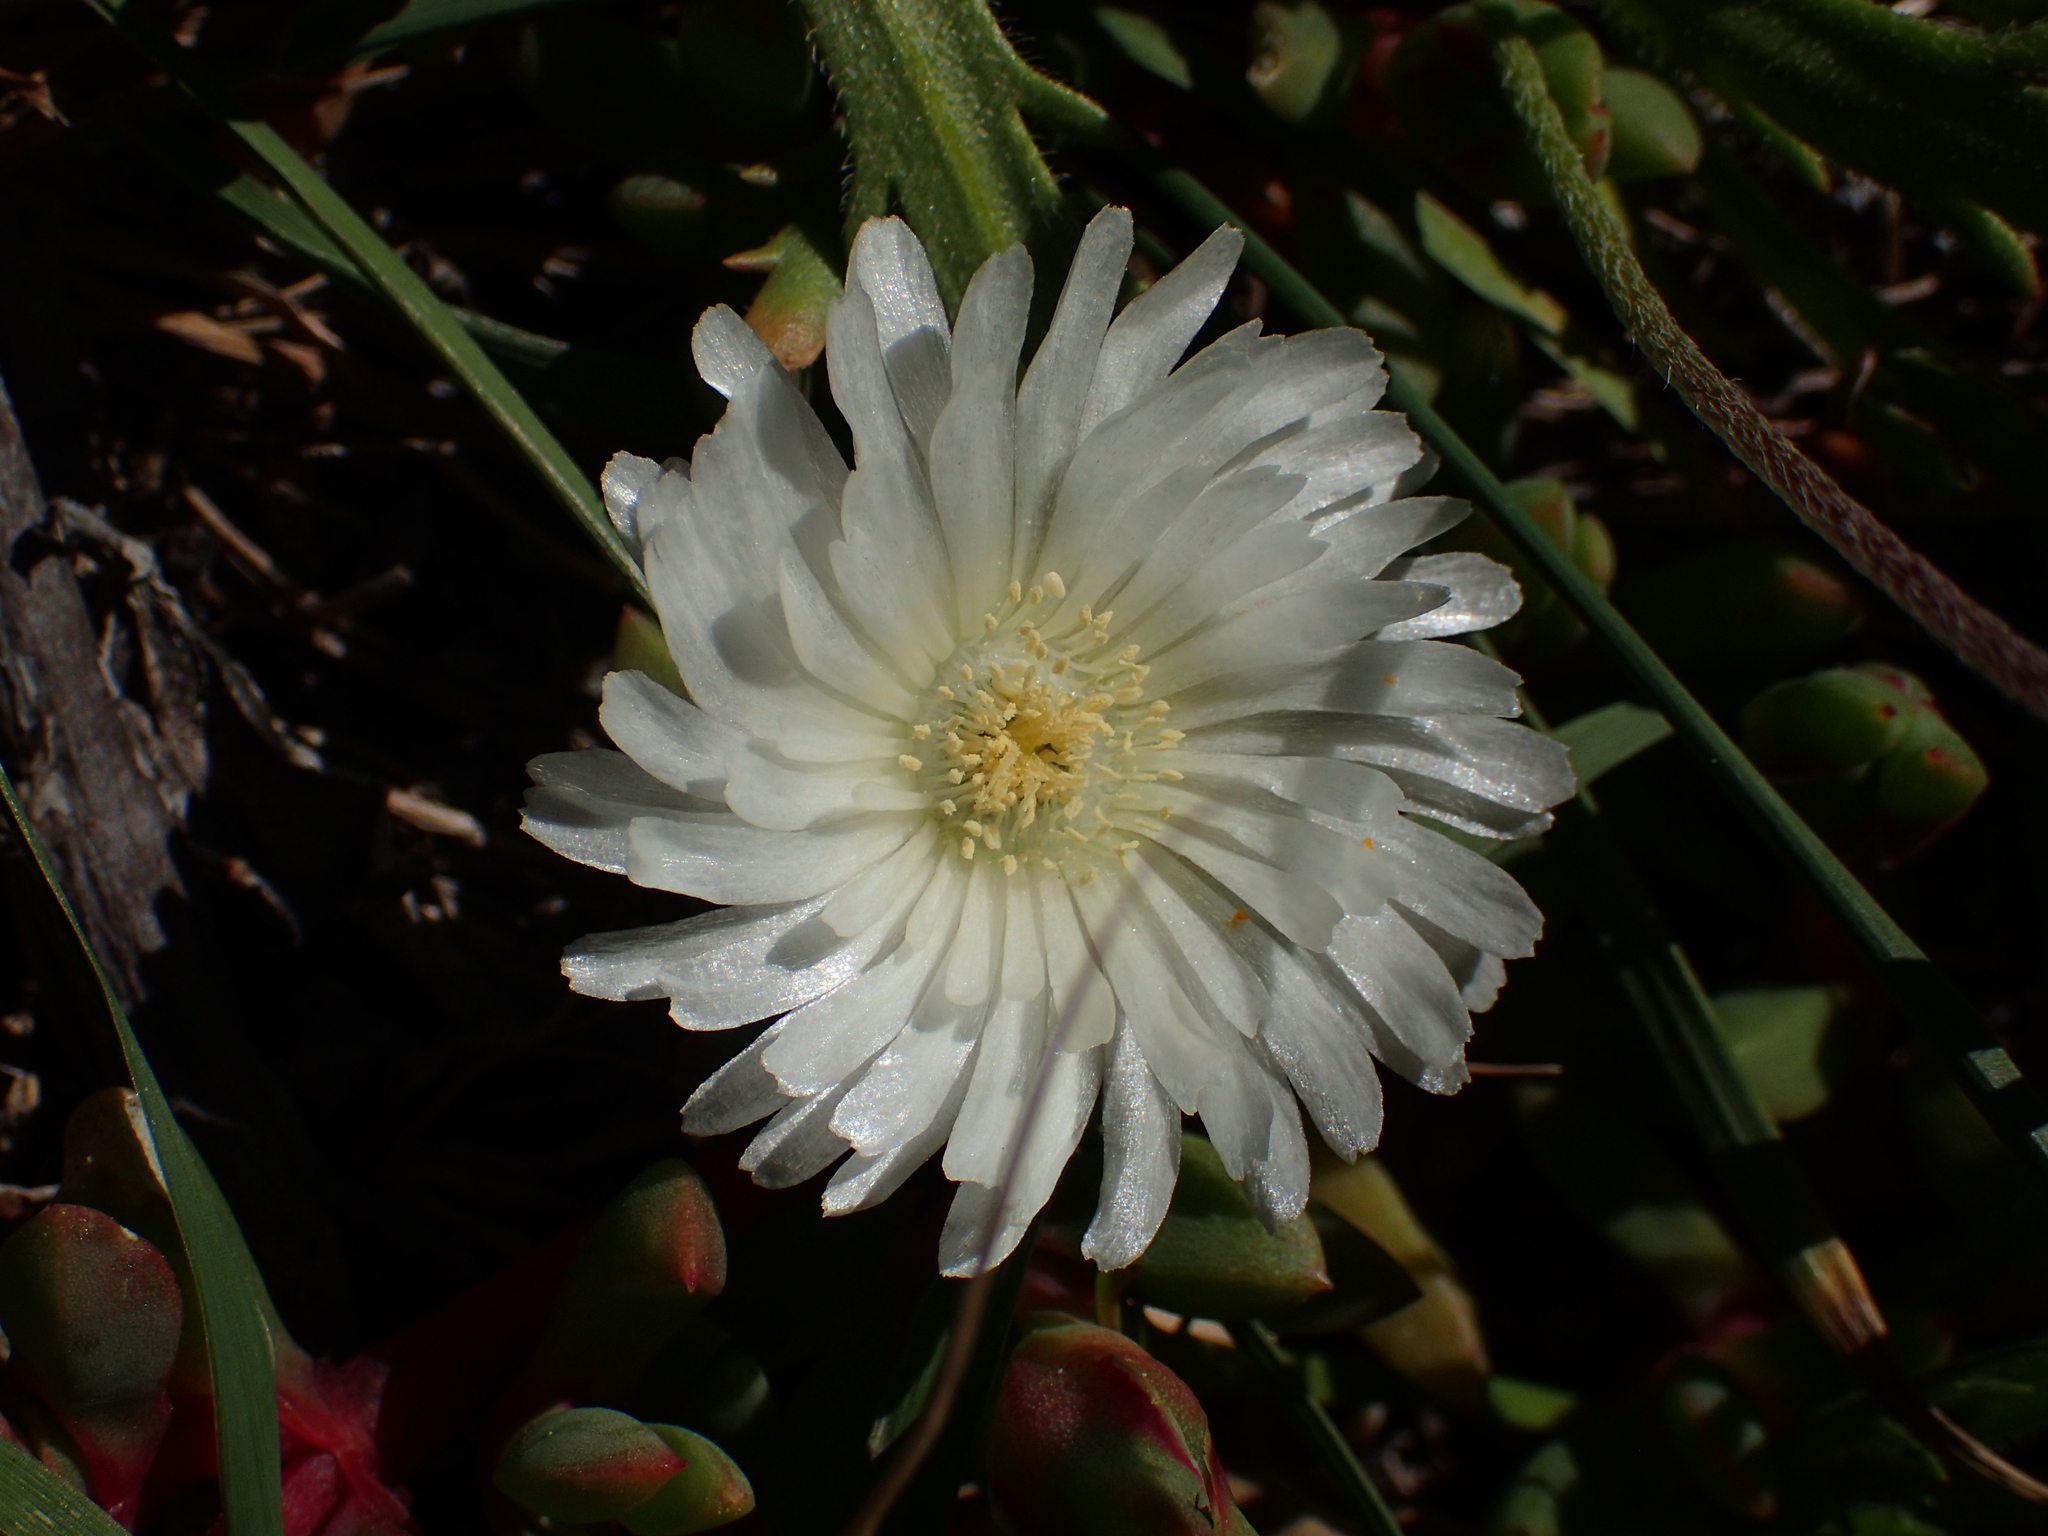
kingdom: Plantae
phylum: Tracheophyta
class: Magnoliopsida
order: Caryophyllales
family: Aizoaceae
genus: Disphyma
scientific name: Disphyma australe
